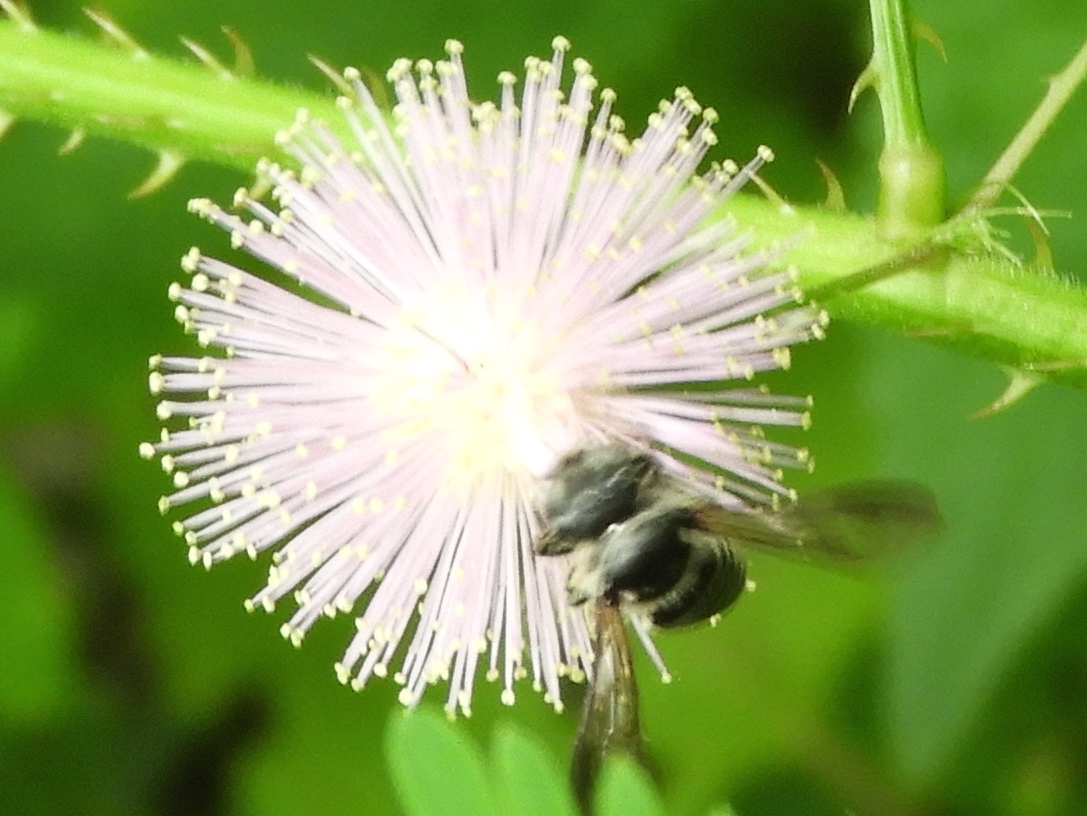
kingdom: Animalia
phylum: Arthropoda
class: Insecta
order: Hymenoptera
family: Megachilidae
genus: Megachile
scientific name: Megachile
